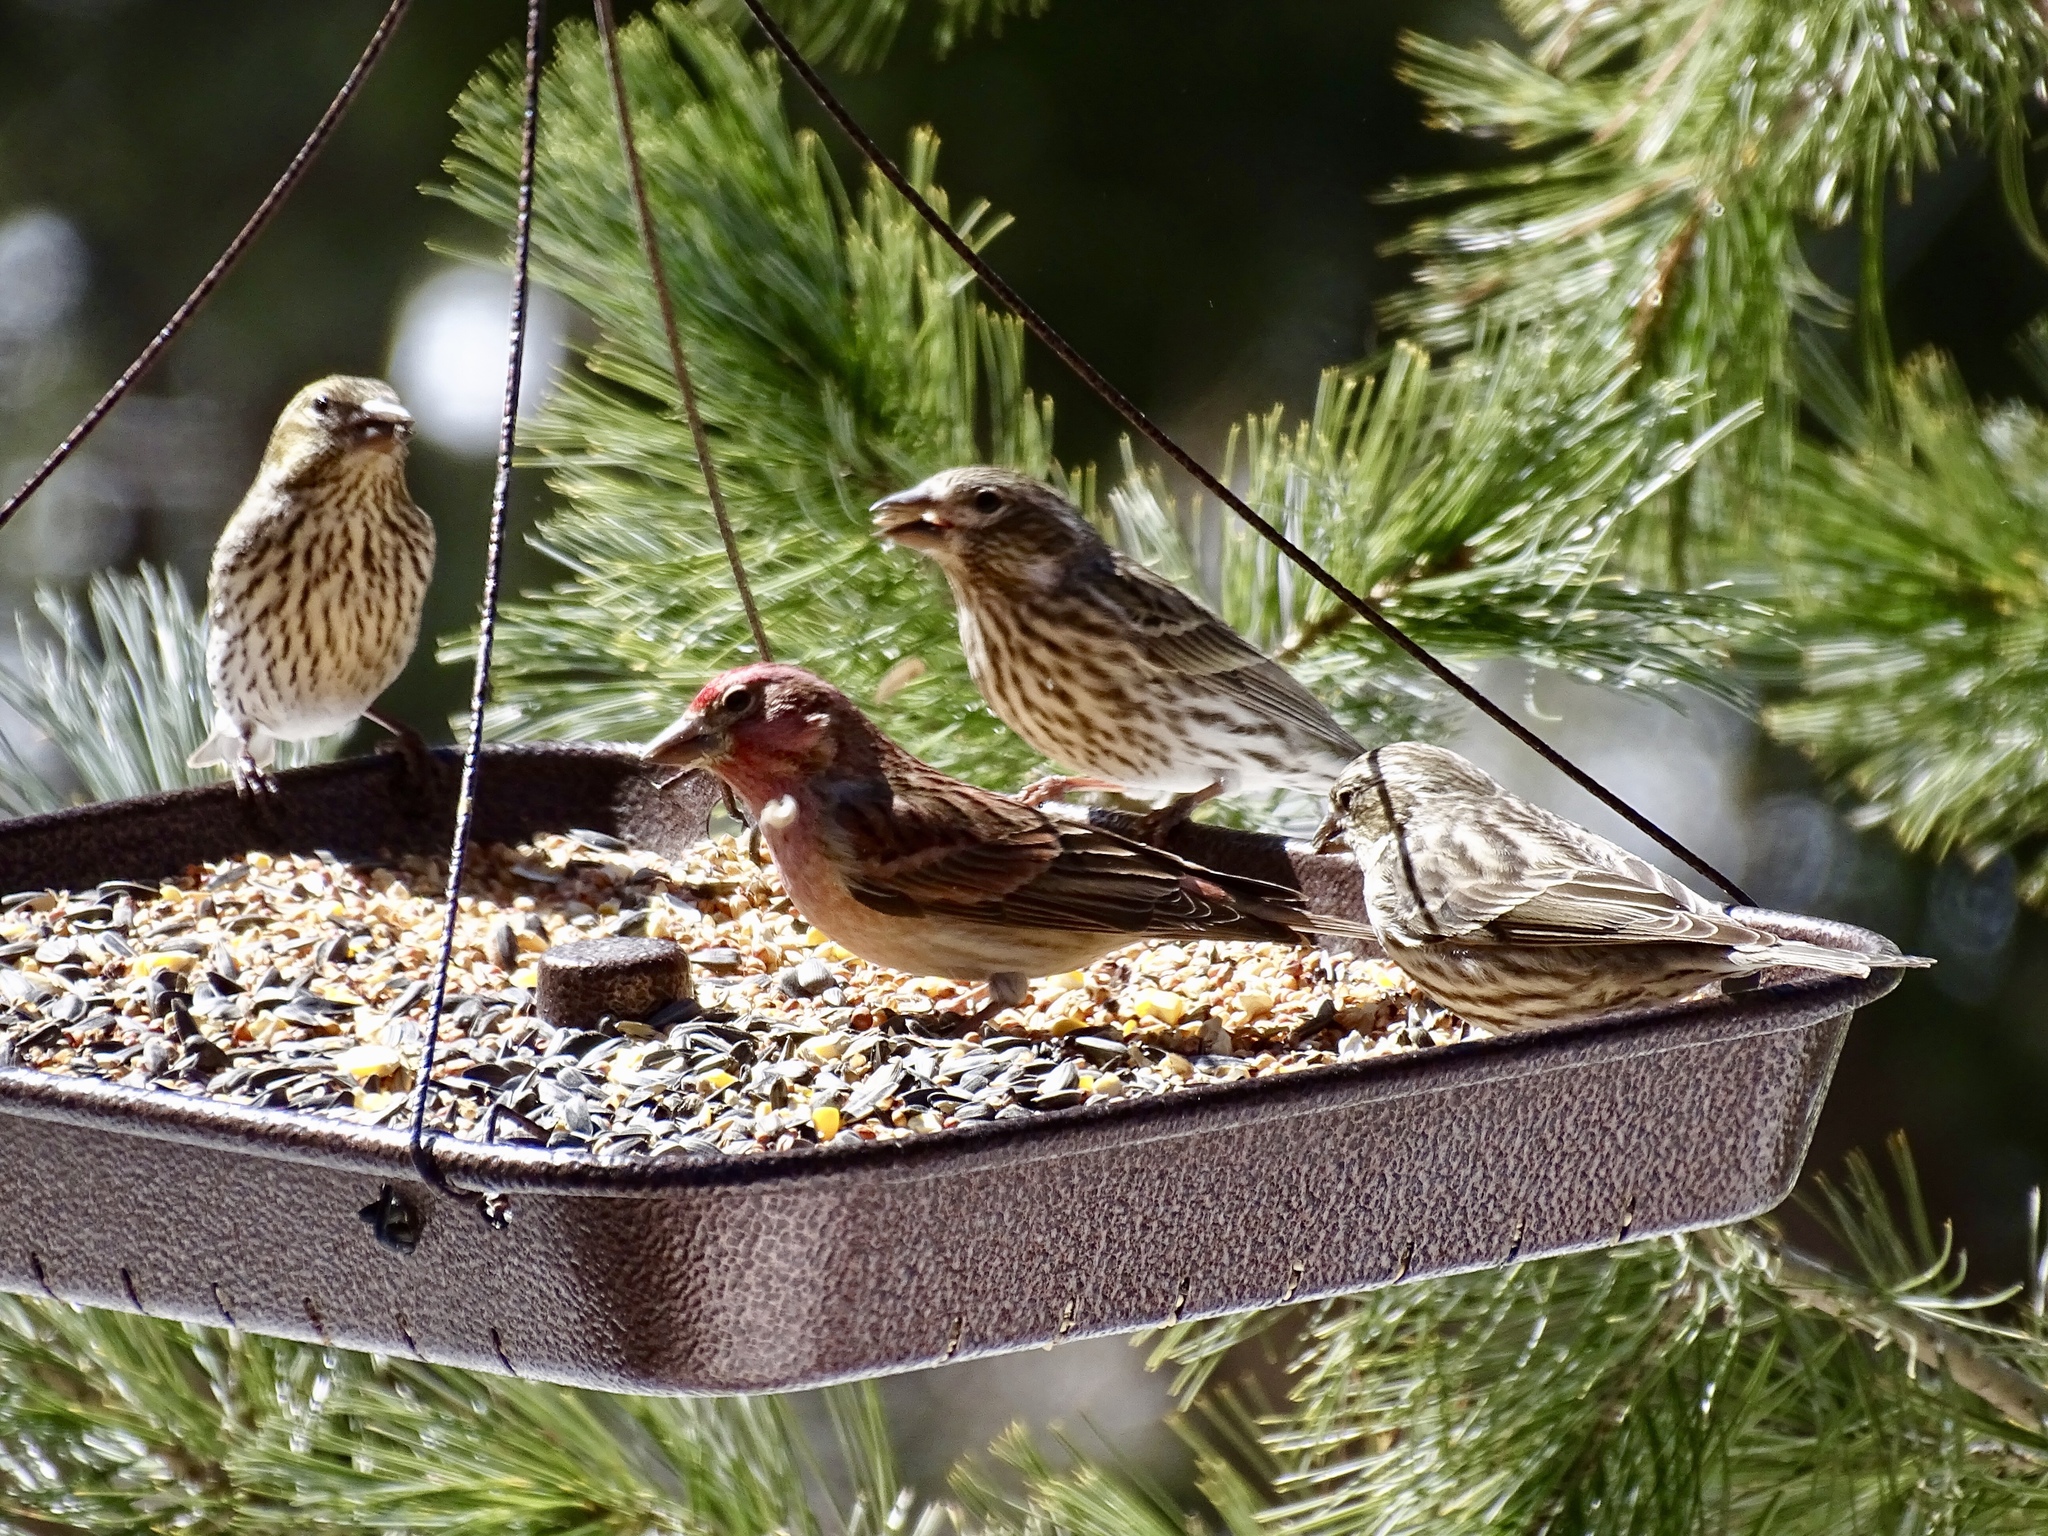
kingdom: Animalia
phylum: Chordata
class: Aves
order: Passeriformes
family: Fringillidae
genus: Haemorhous
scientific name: Haemorhous cassinii
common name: Cassin's finch
